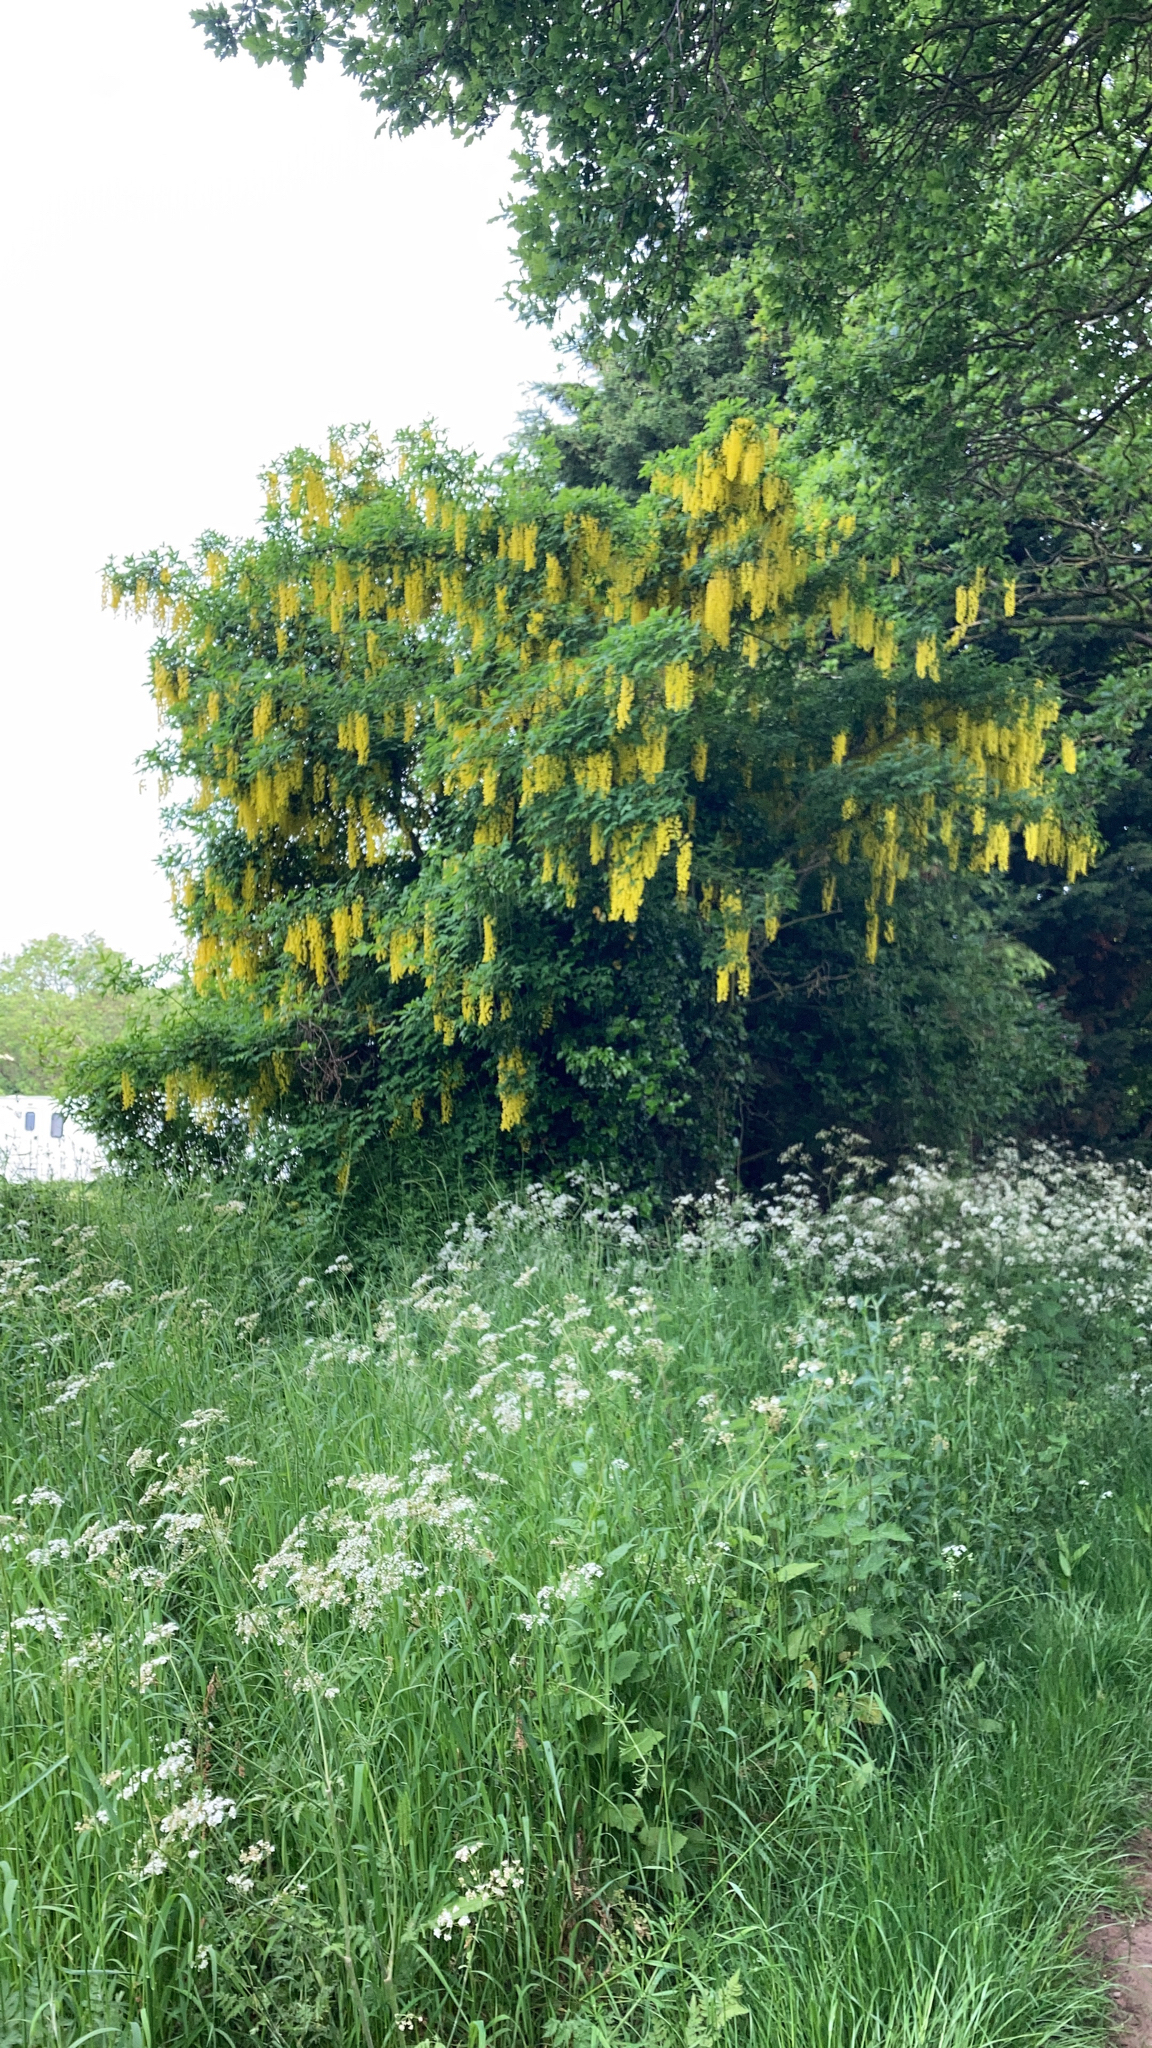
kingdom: Plantae
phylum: Tracheophyta
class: Magnoliopsida
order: Fabales
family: Fabaceae
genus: Laburnum
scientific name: Laburnum anagyroides
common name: Laburnum
